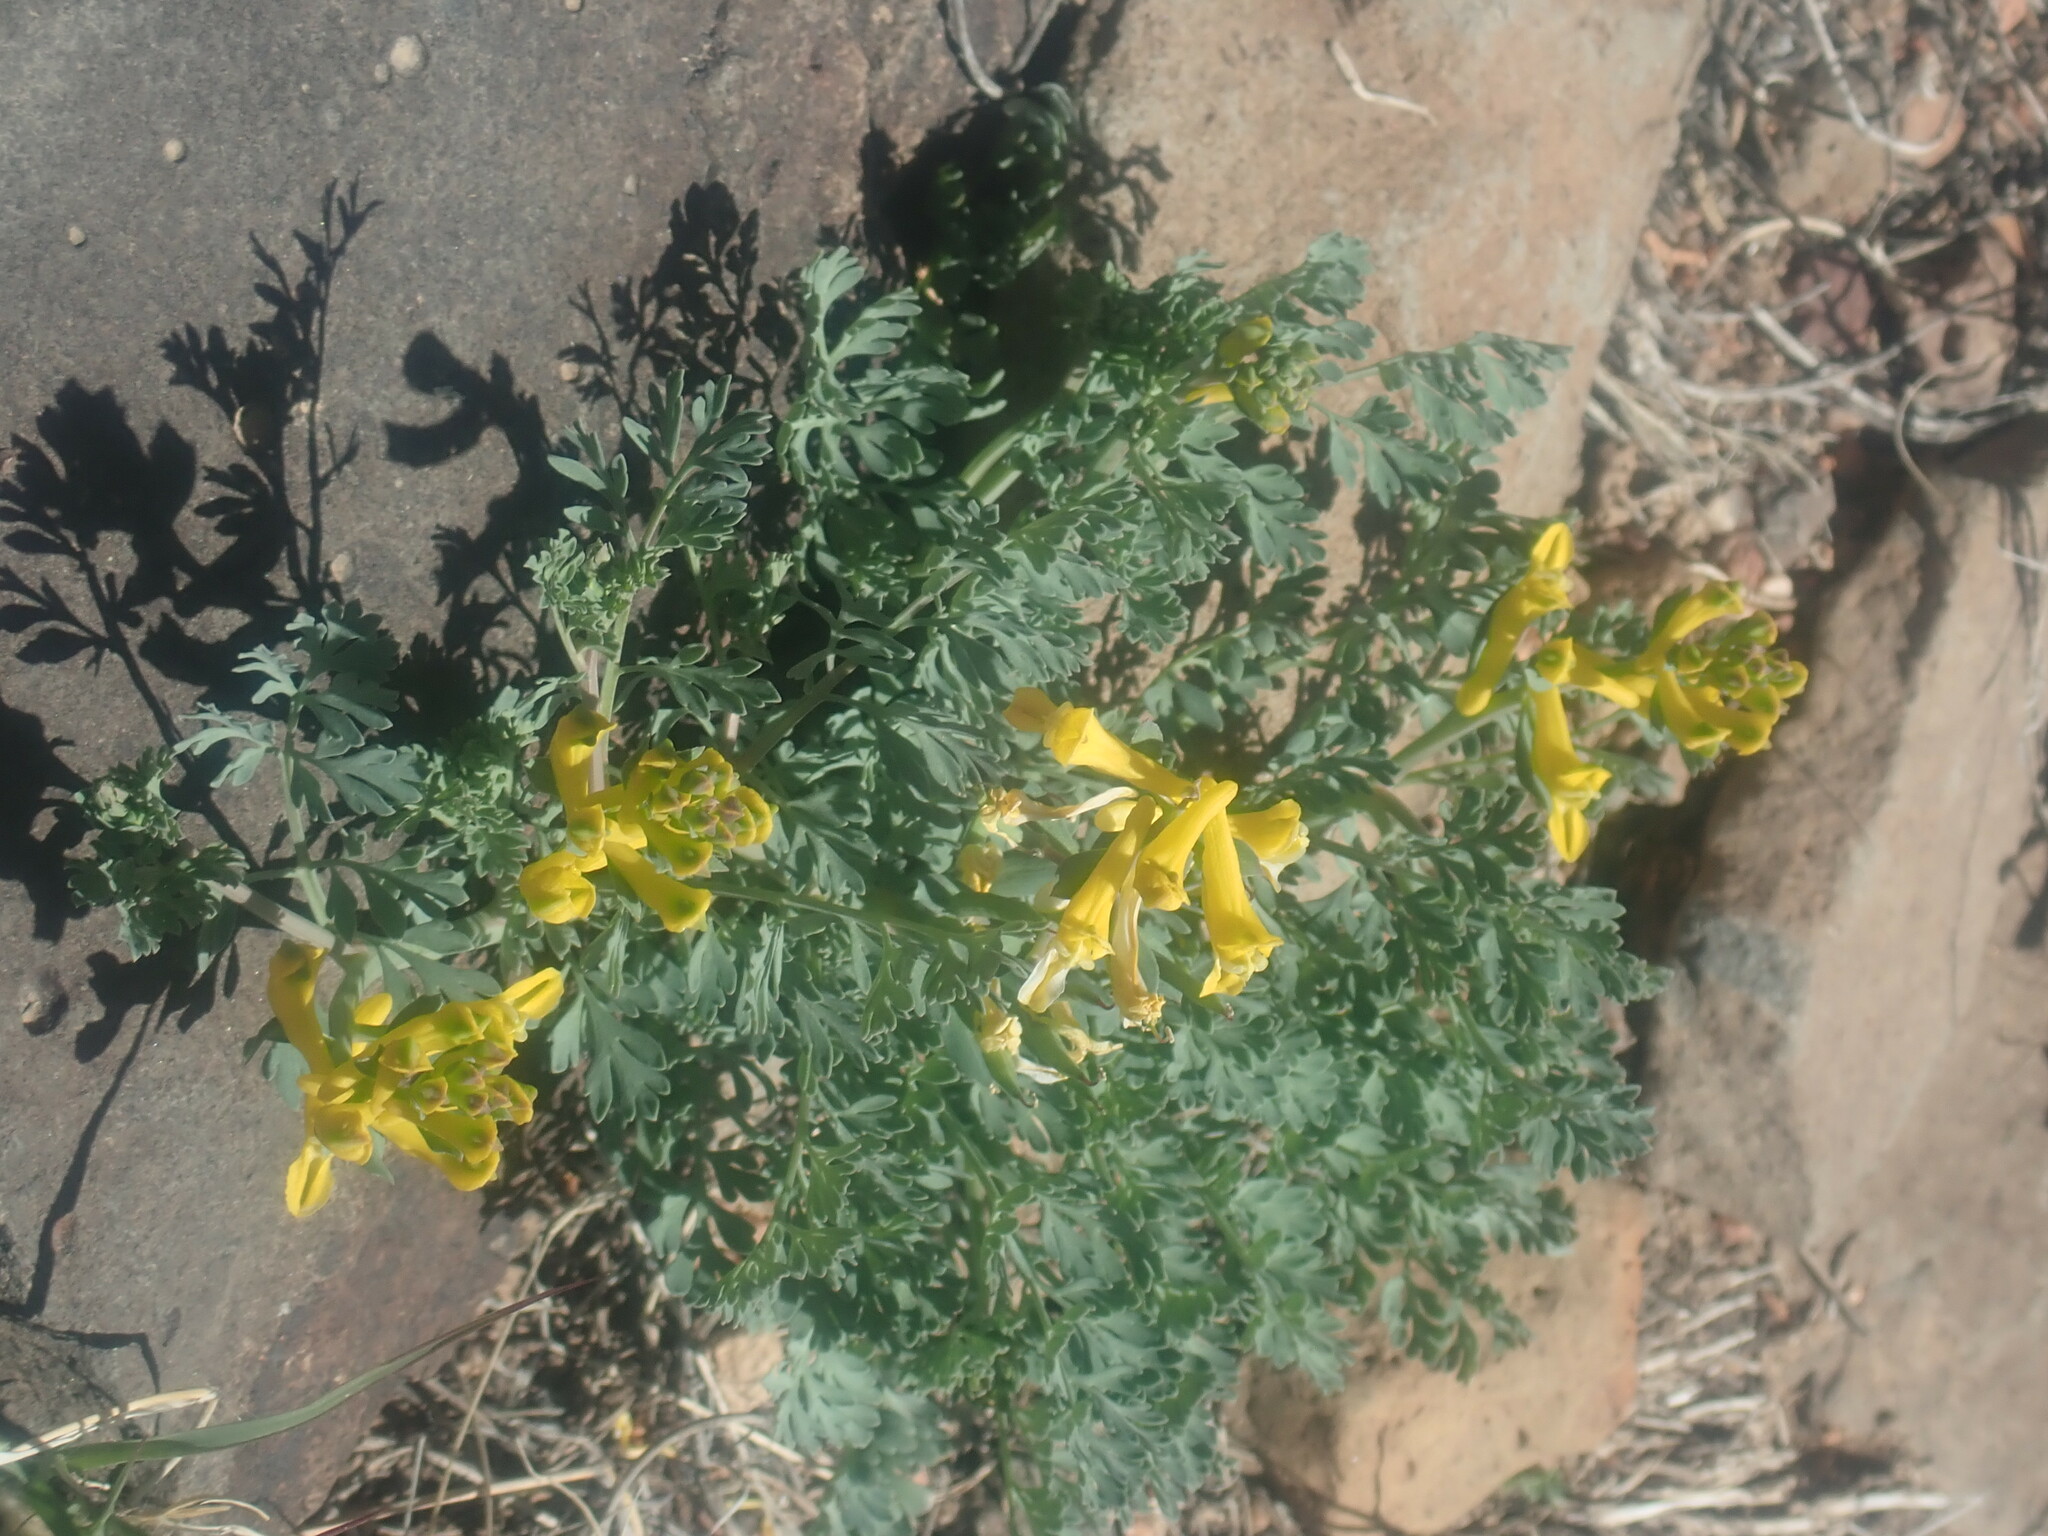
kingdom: Plantae
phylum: Tracheophyta
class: Magnoliopsida
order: Ranunculales
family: Papaveraceae
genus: Corydalis
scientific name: Corydalis aurea
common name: Golden corydalis
